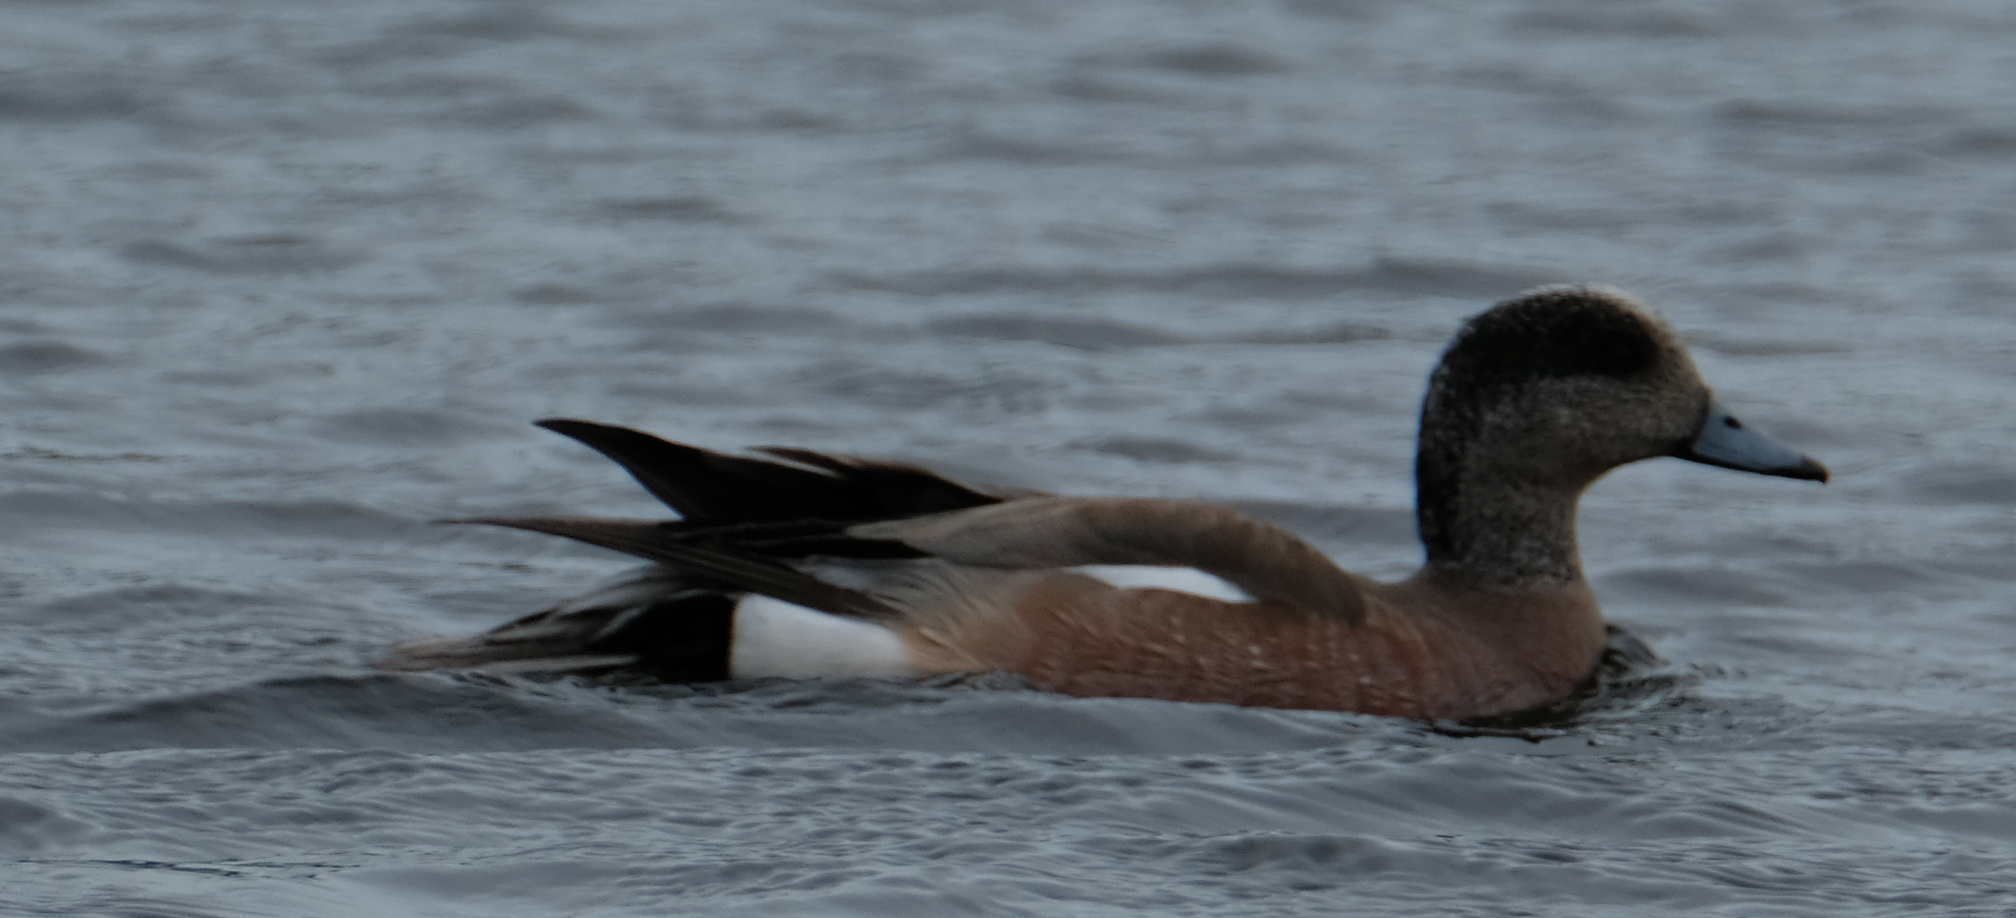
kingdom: Animalia
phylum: Chordata
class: Aves
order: Anseriformes
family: Anatidae
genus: Mareca
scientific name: Mareca americana
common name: American wigeon
